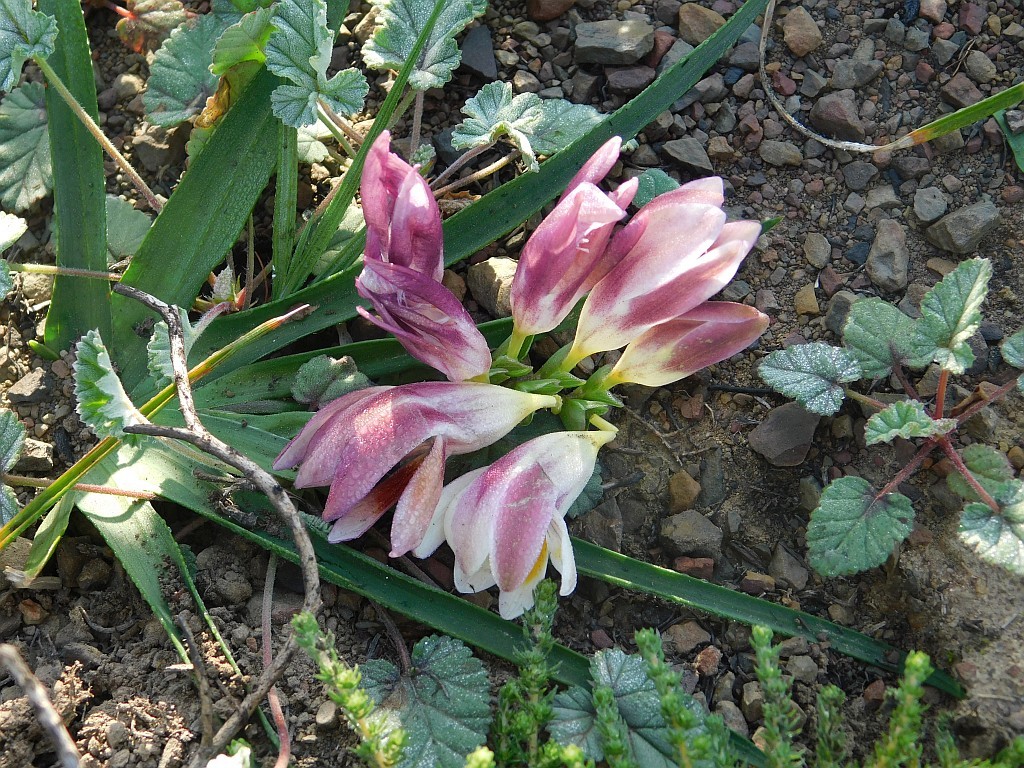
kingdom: Plantae
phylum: Tracheophyta
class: Liliopsida
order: Asparagales
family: Iridaceae
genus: Freesia
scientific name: Freesia caryophyllacea
